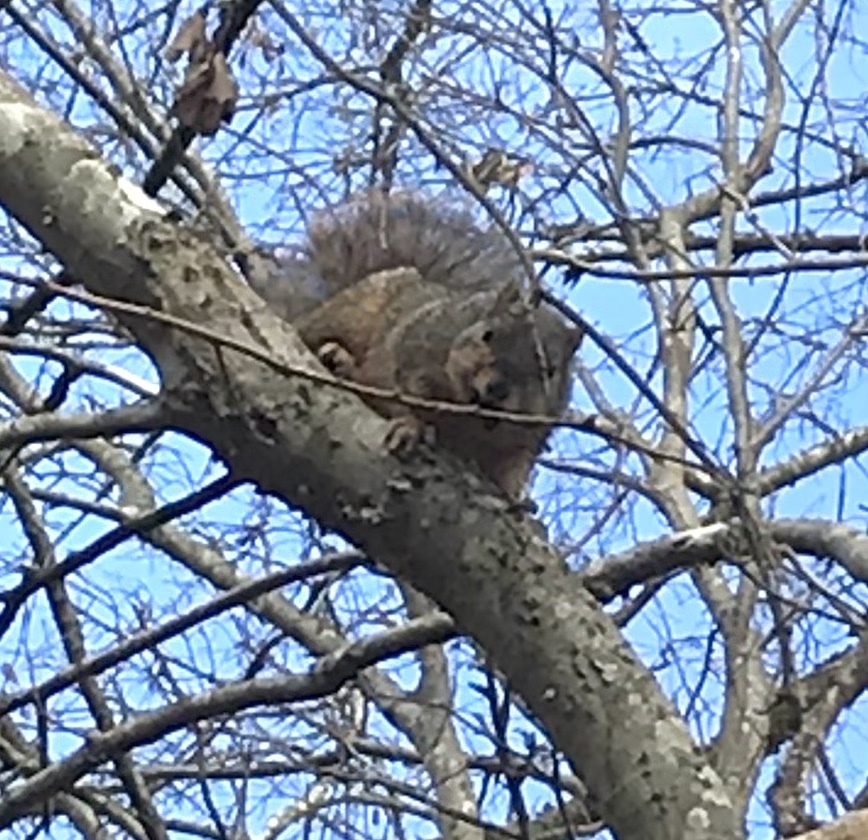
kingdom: Animalia
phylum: Chordata
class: Mammalia
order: Rodentia
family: Sciuridae
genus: Sciurus
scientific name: Sciurus niger
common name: Fox squirrel
